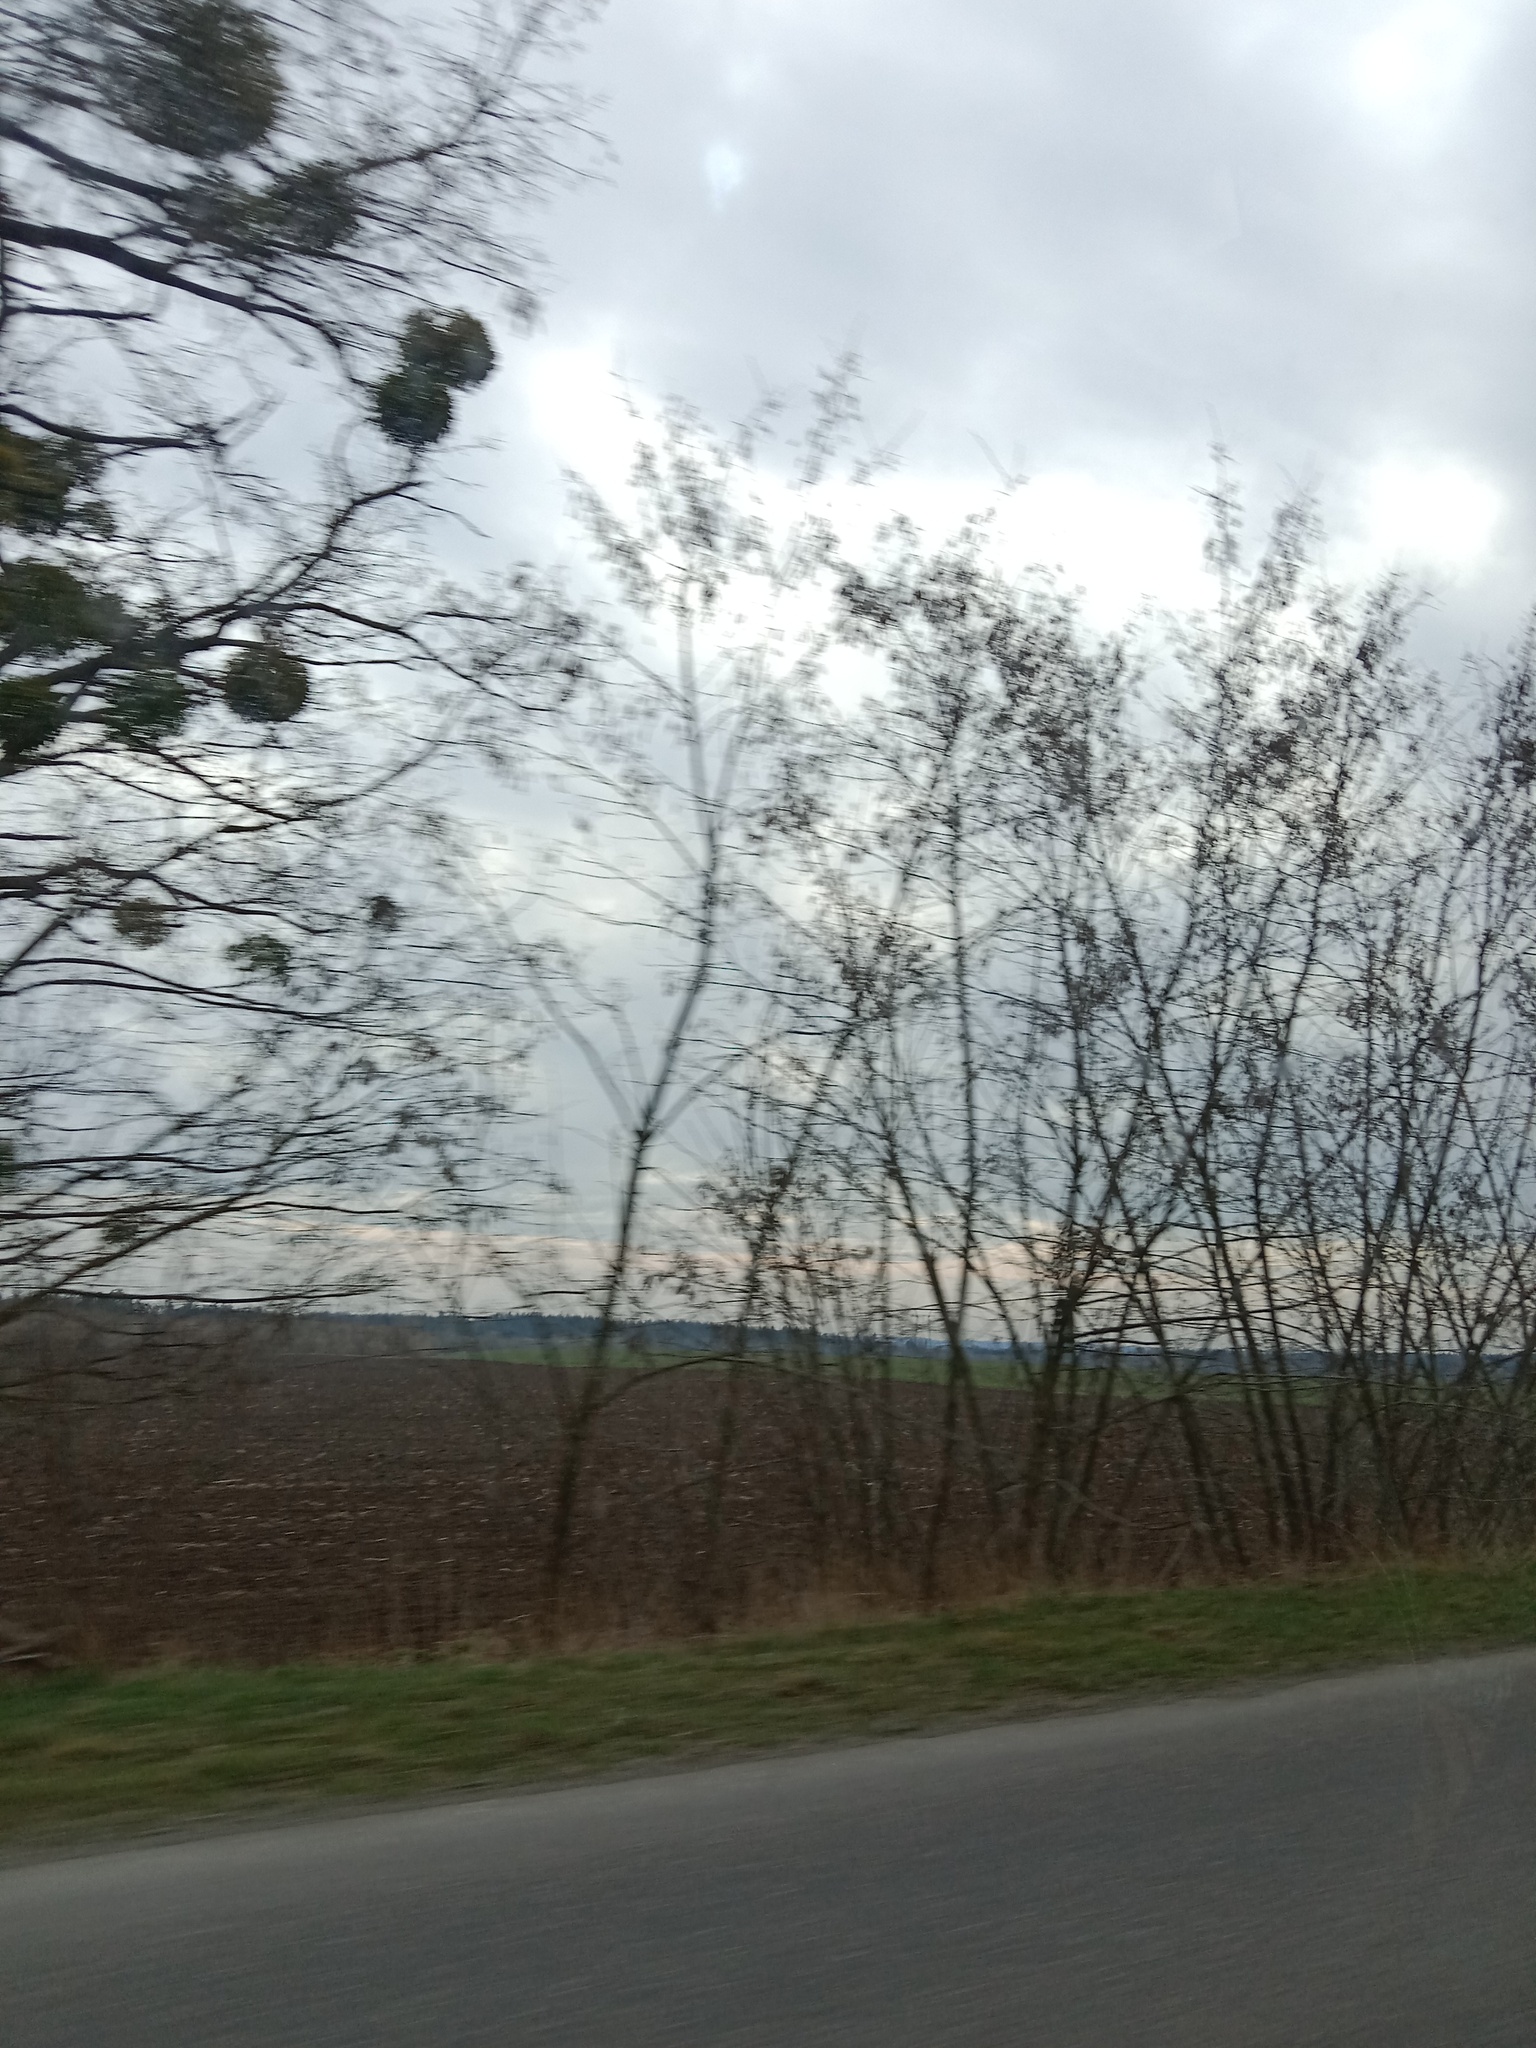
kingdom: Plantae
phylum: Tracheophyta
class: Magnoliopsida
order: Santalales
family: Viscaceae
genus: Viscum
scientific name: Viscum album
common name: Mistletoe
